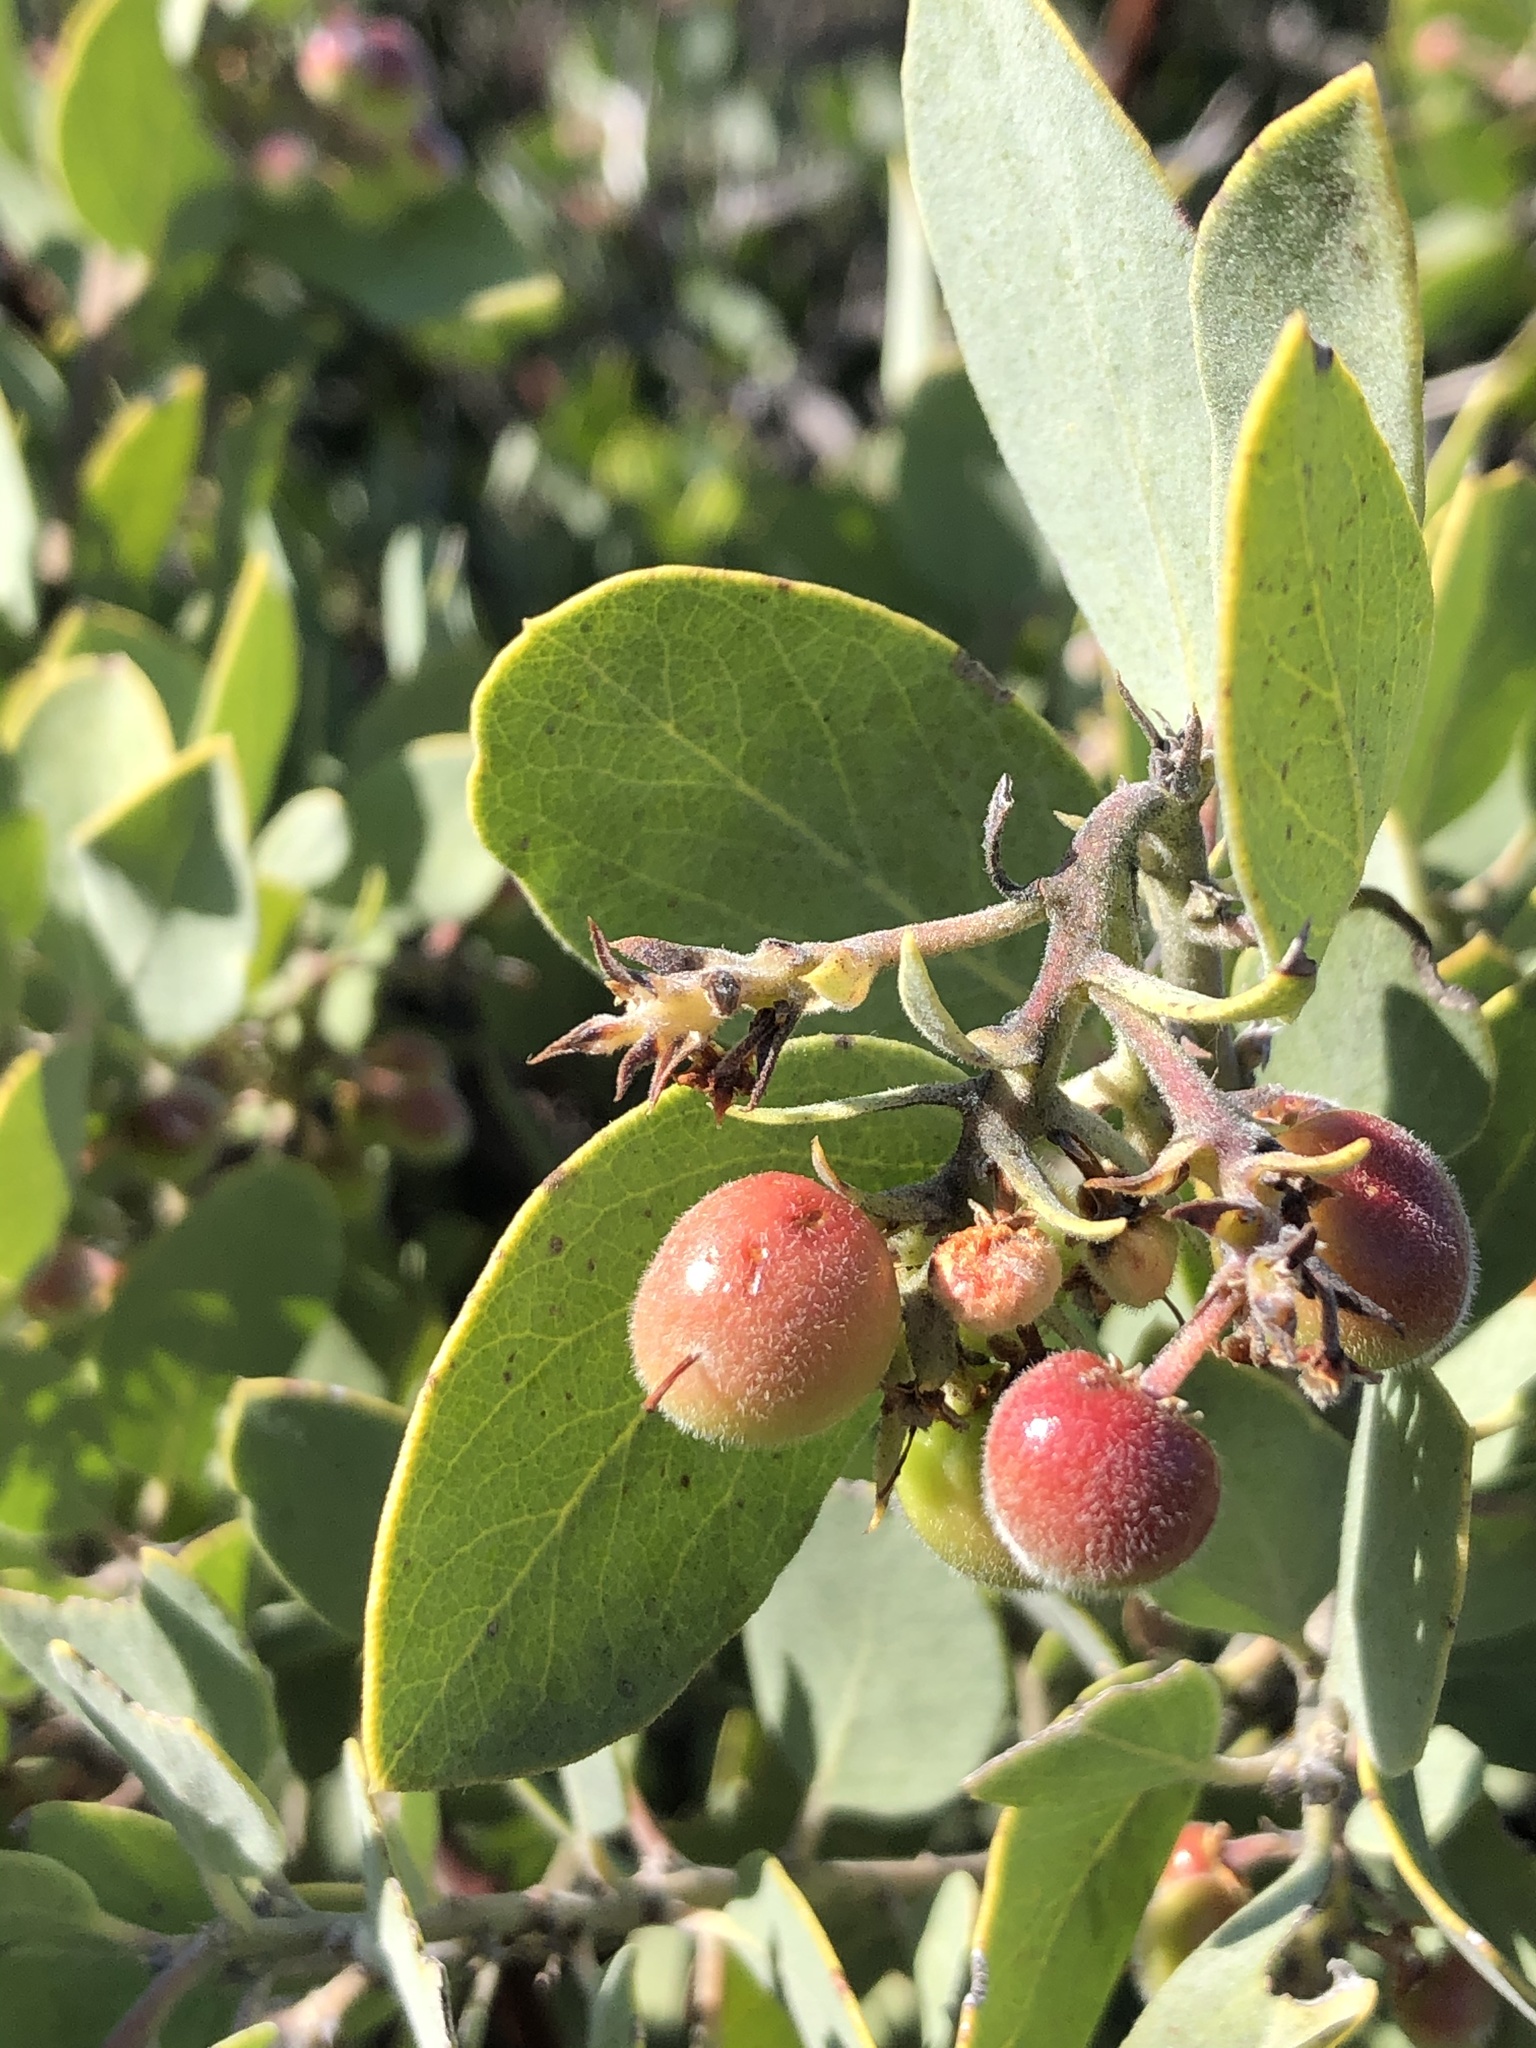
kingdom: Plantae
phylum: Tracheophyta
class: Magnoliopsida
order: Ericales
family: Ericaceae
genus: Arctostaphylos
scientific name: Arctostaphylos glandulosa
